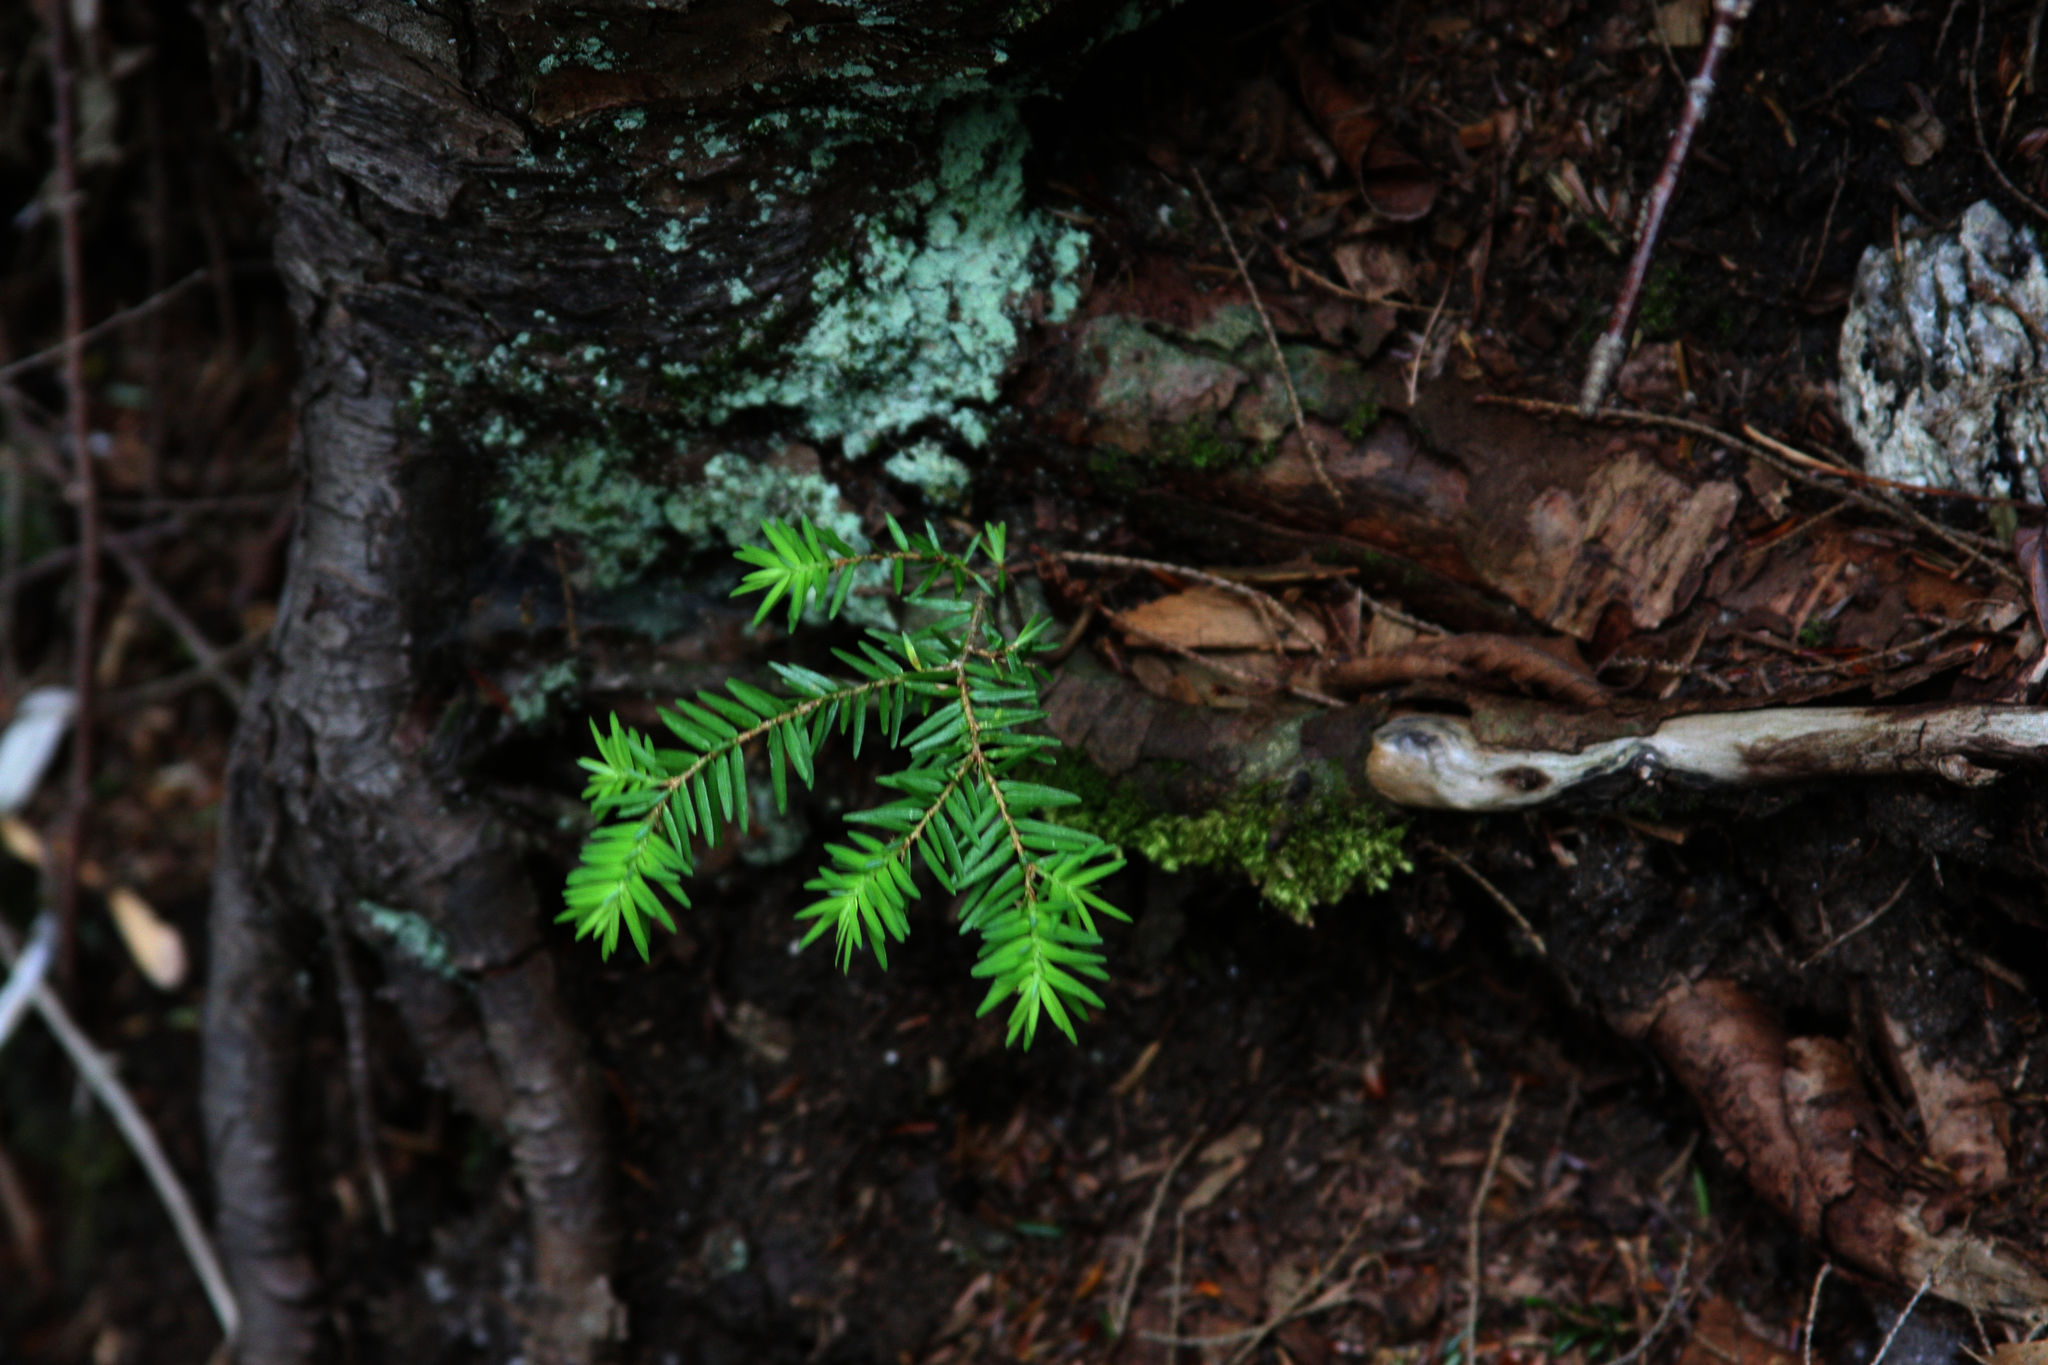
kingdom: Plantae
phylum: Tracheophyta
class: Pinopsida
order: Pinales
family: Pinaceae
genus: Tsuga
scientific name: Tsuga canadensis
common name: Eastern hemlock
